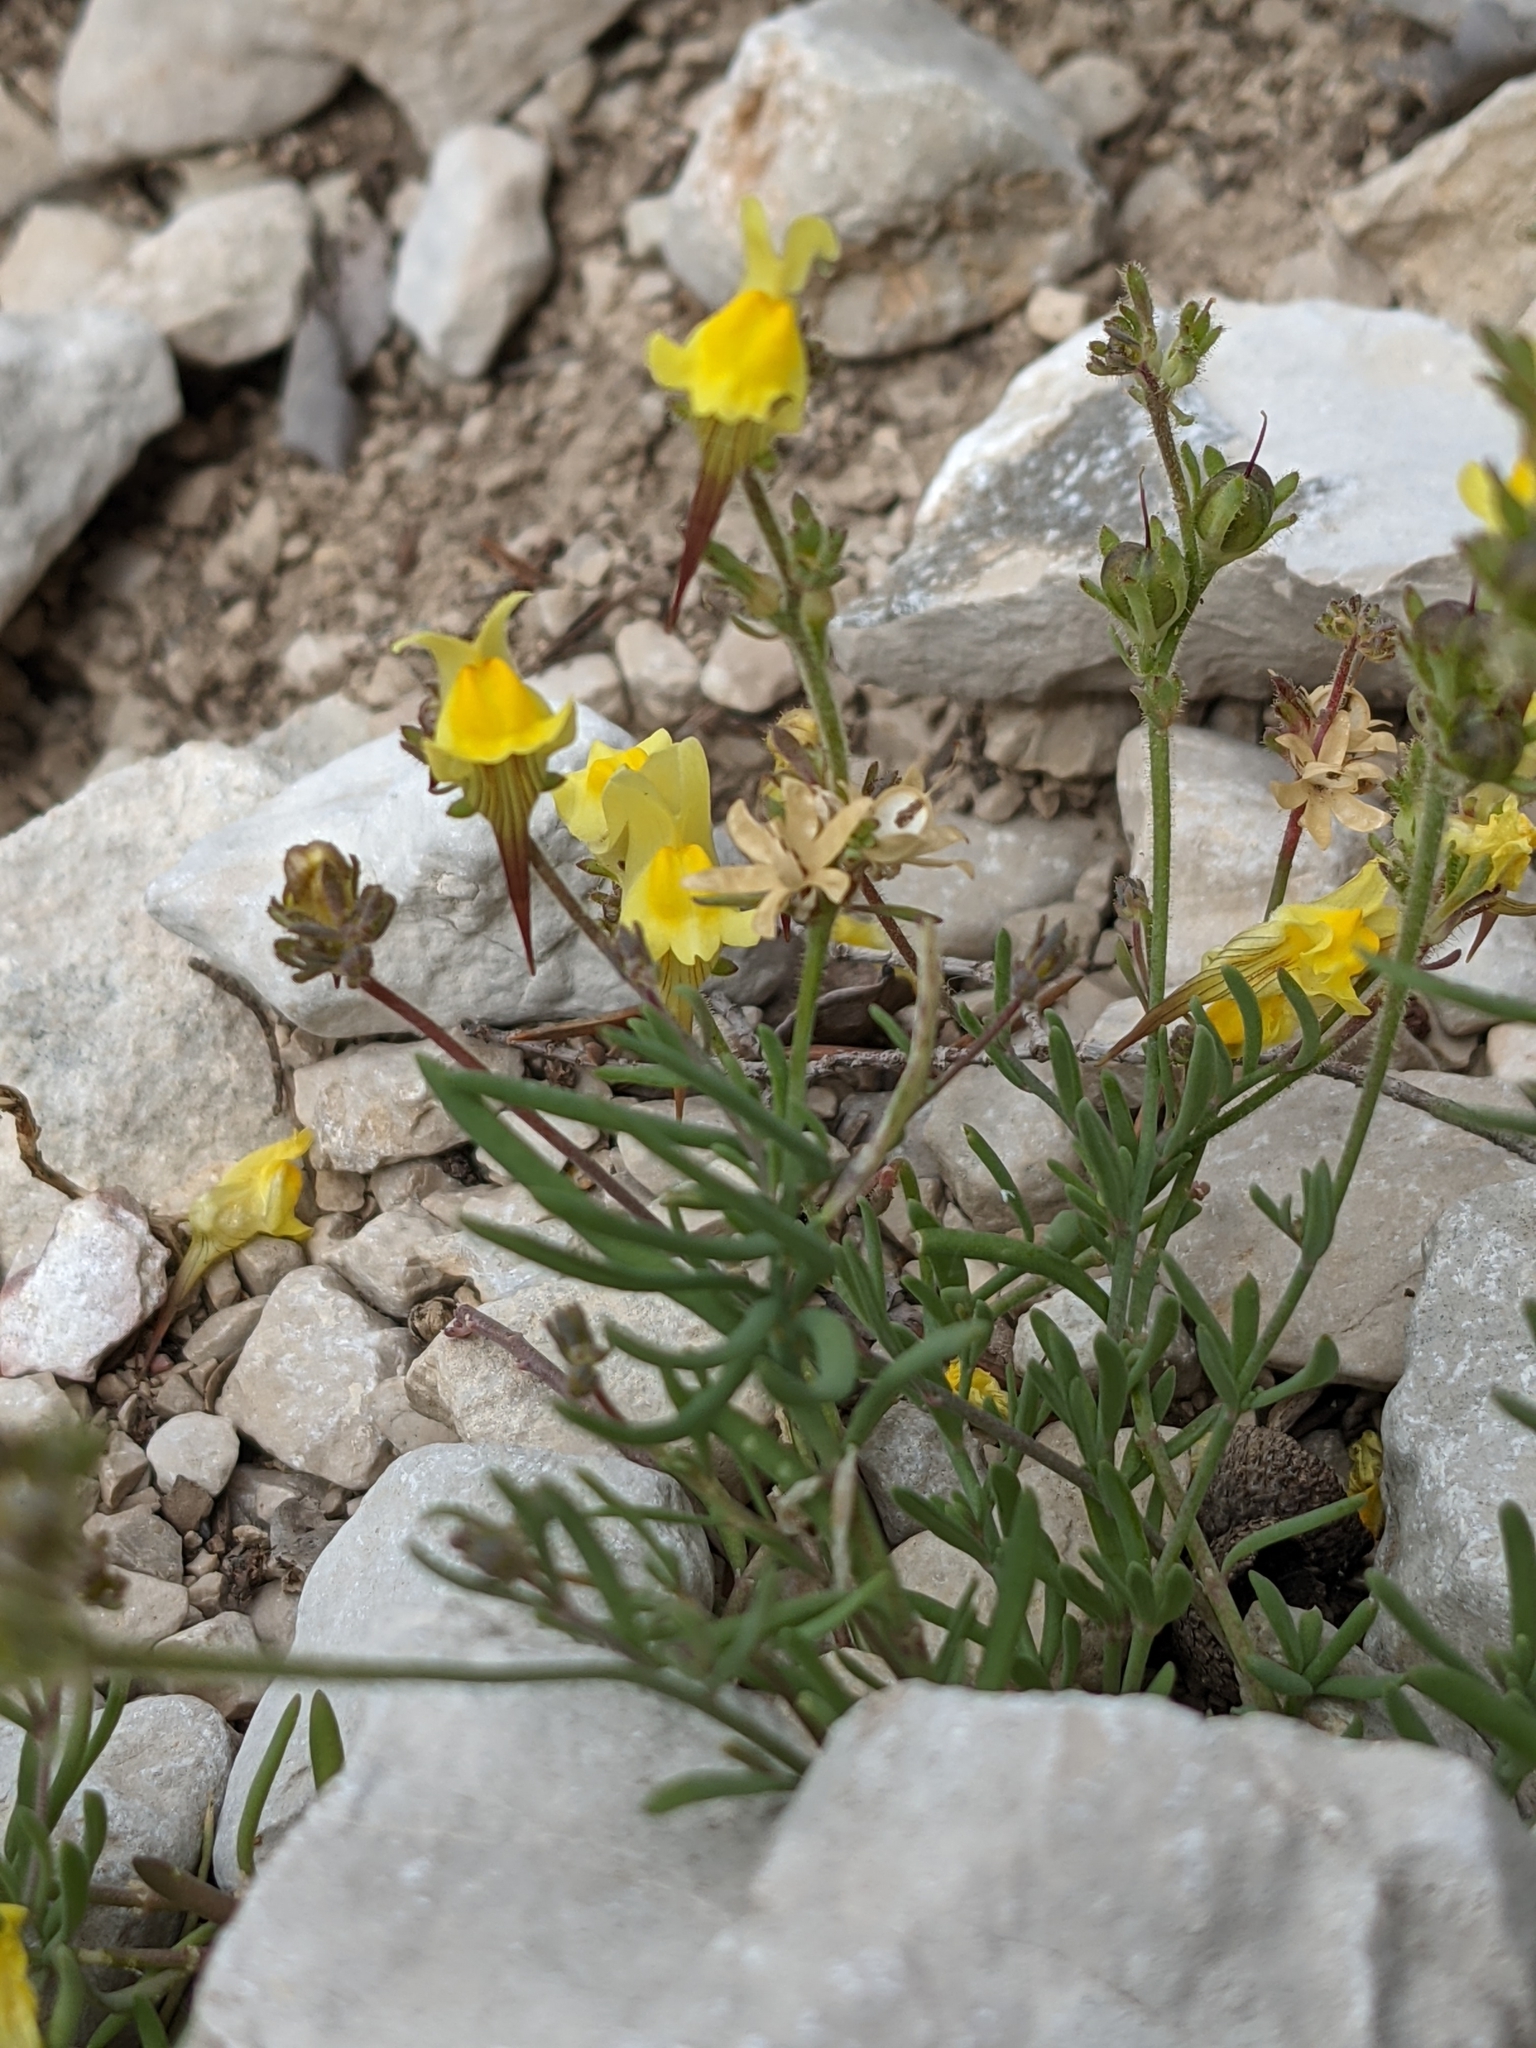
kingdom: Plantae
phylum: Tracheophyta
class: Magnoliopsida
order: Lamiales
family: Plantaginaceae
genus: Linaria
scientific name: Linaria supina
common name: Prostrate toadflax
